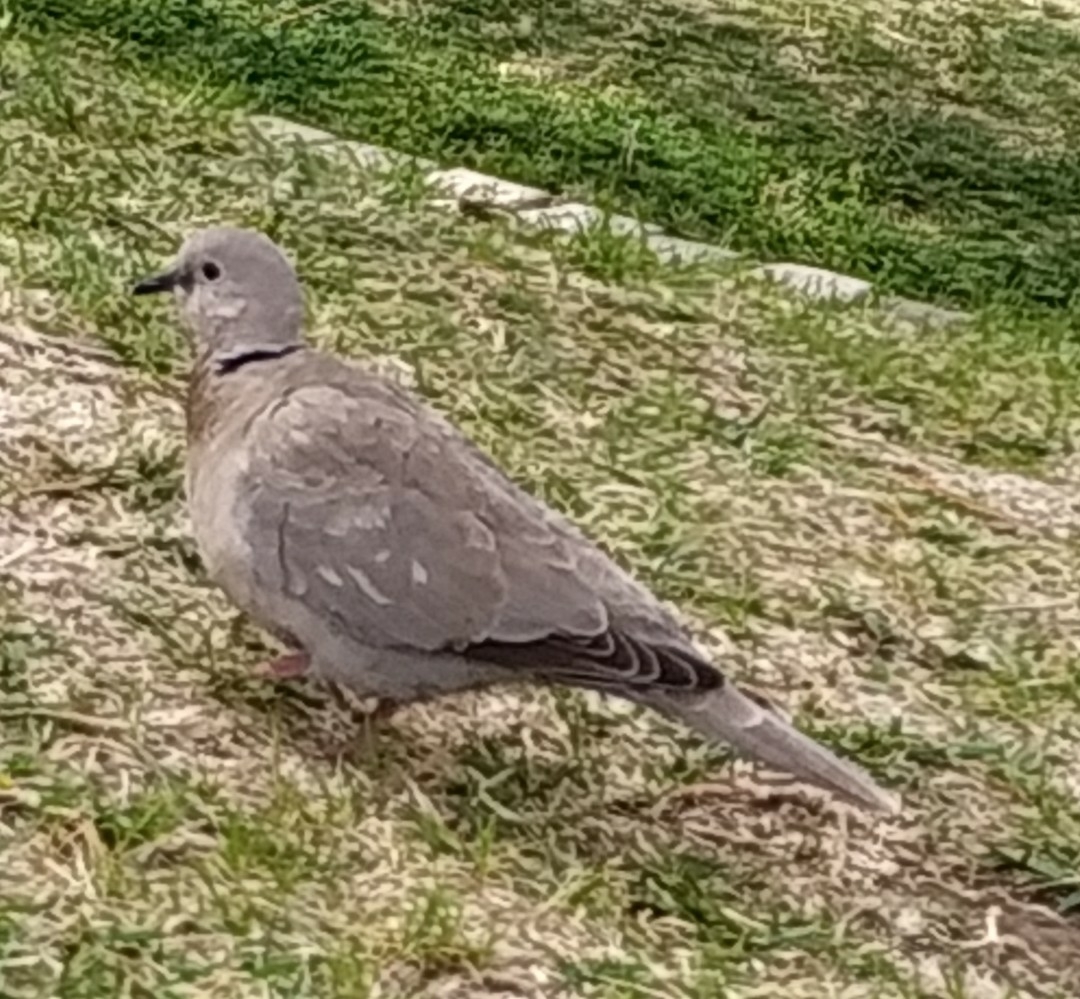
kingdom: Animalia
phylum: Chordata
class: Aves
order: Columbiformes
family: Columbidae
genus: Streptopelia
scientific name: Streptopelia decaocto
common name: Eurasian collared dove
